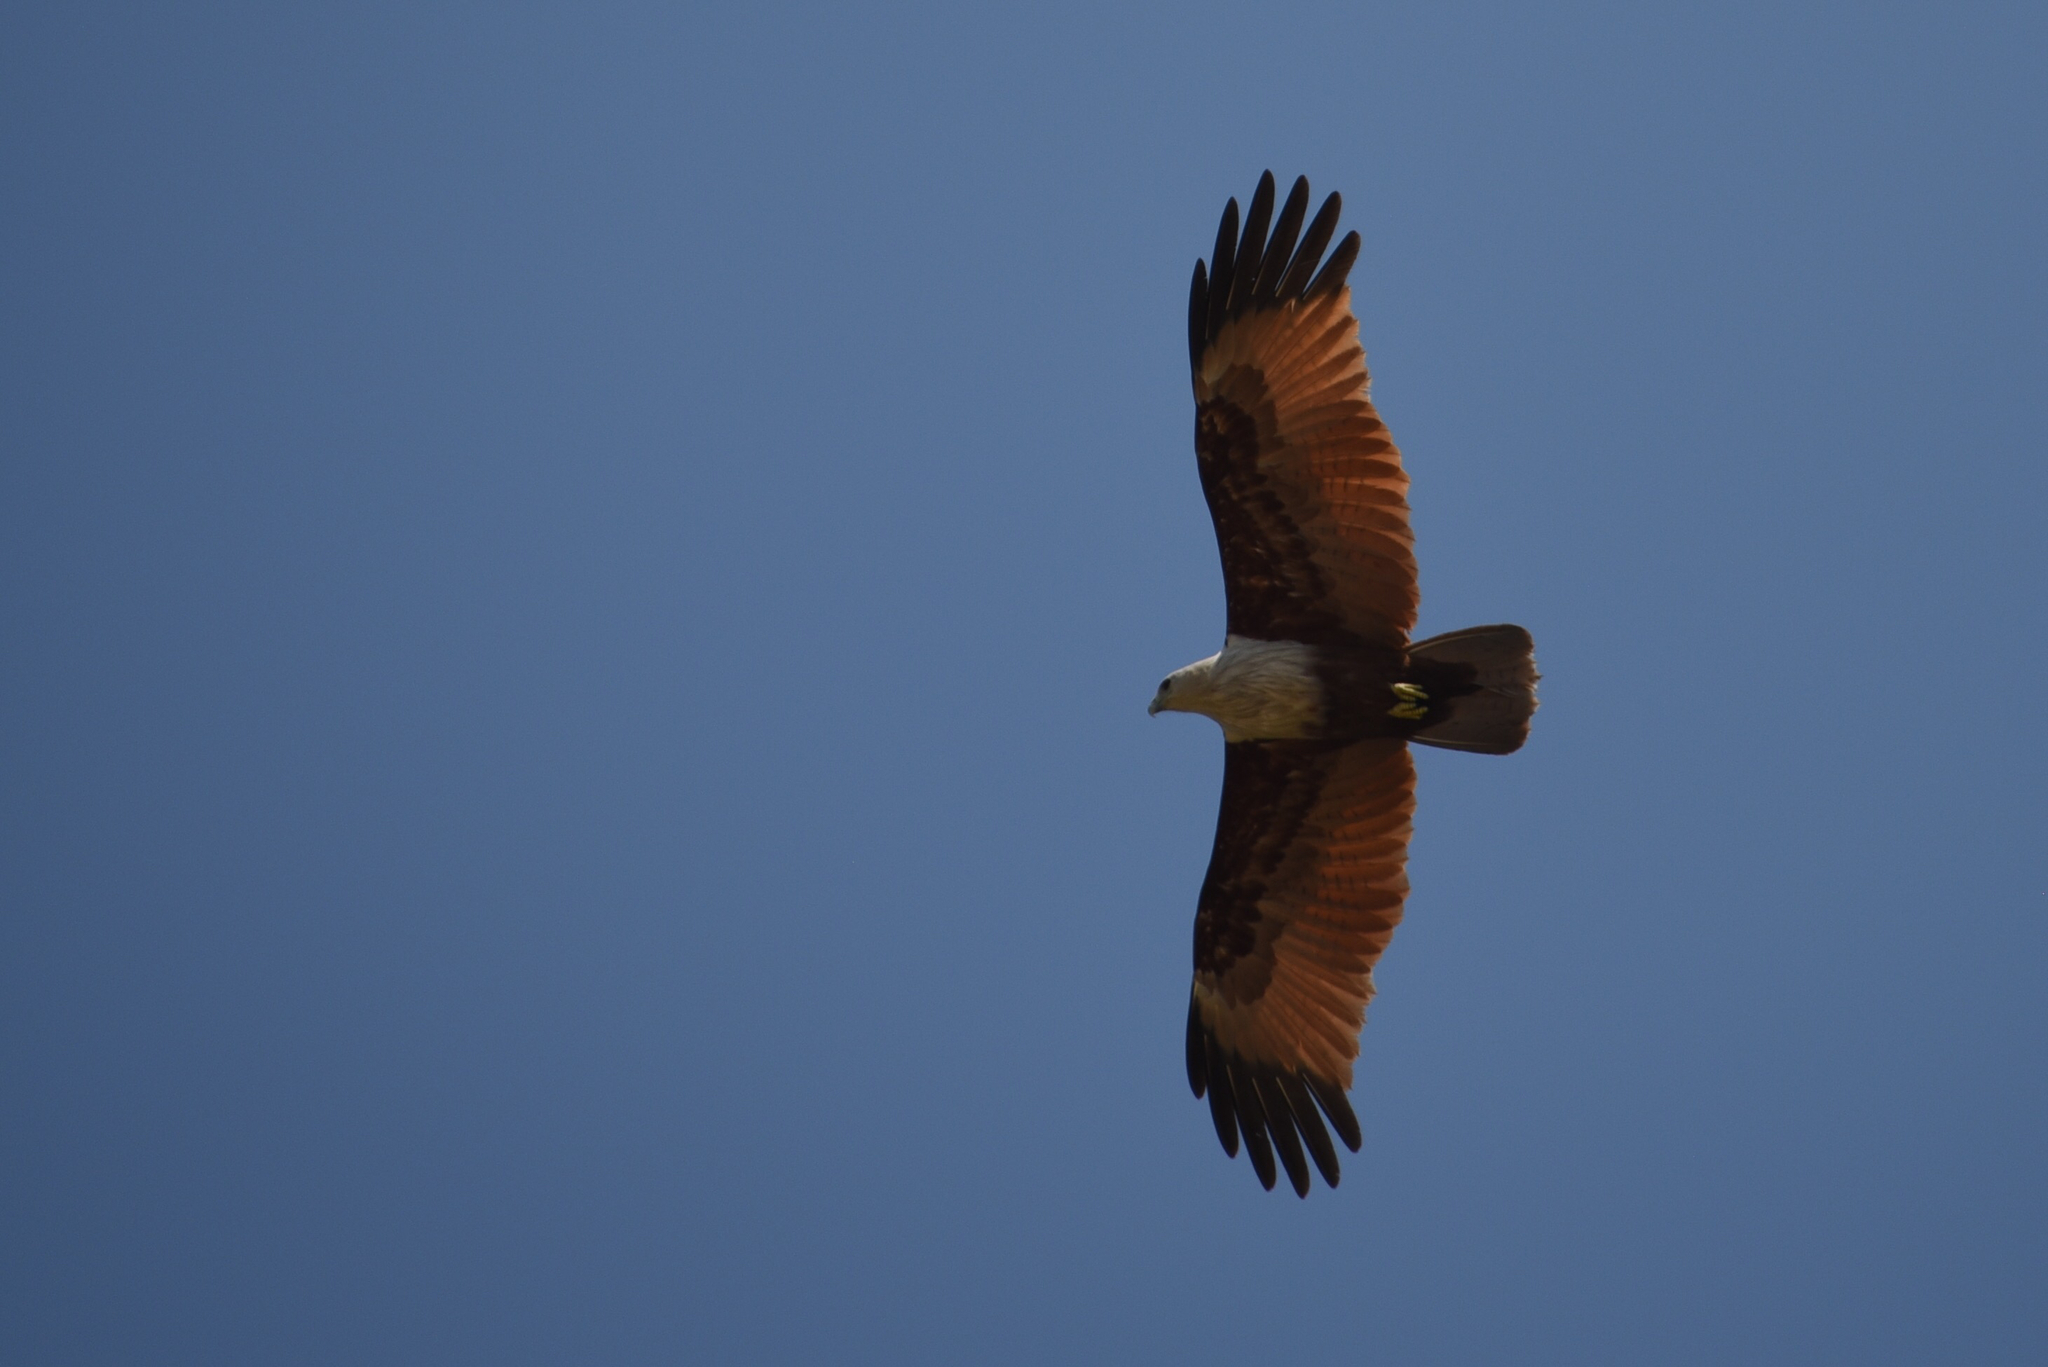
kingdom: Animalia
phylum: Chordata
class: Aves
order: Accipitriformes
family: Accipitridae
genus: Haliastur
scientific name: Haliastur indus
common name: Brahminy kite
